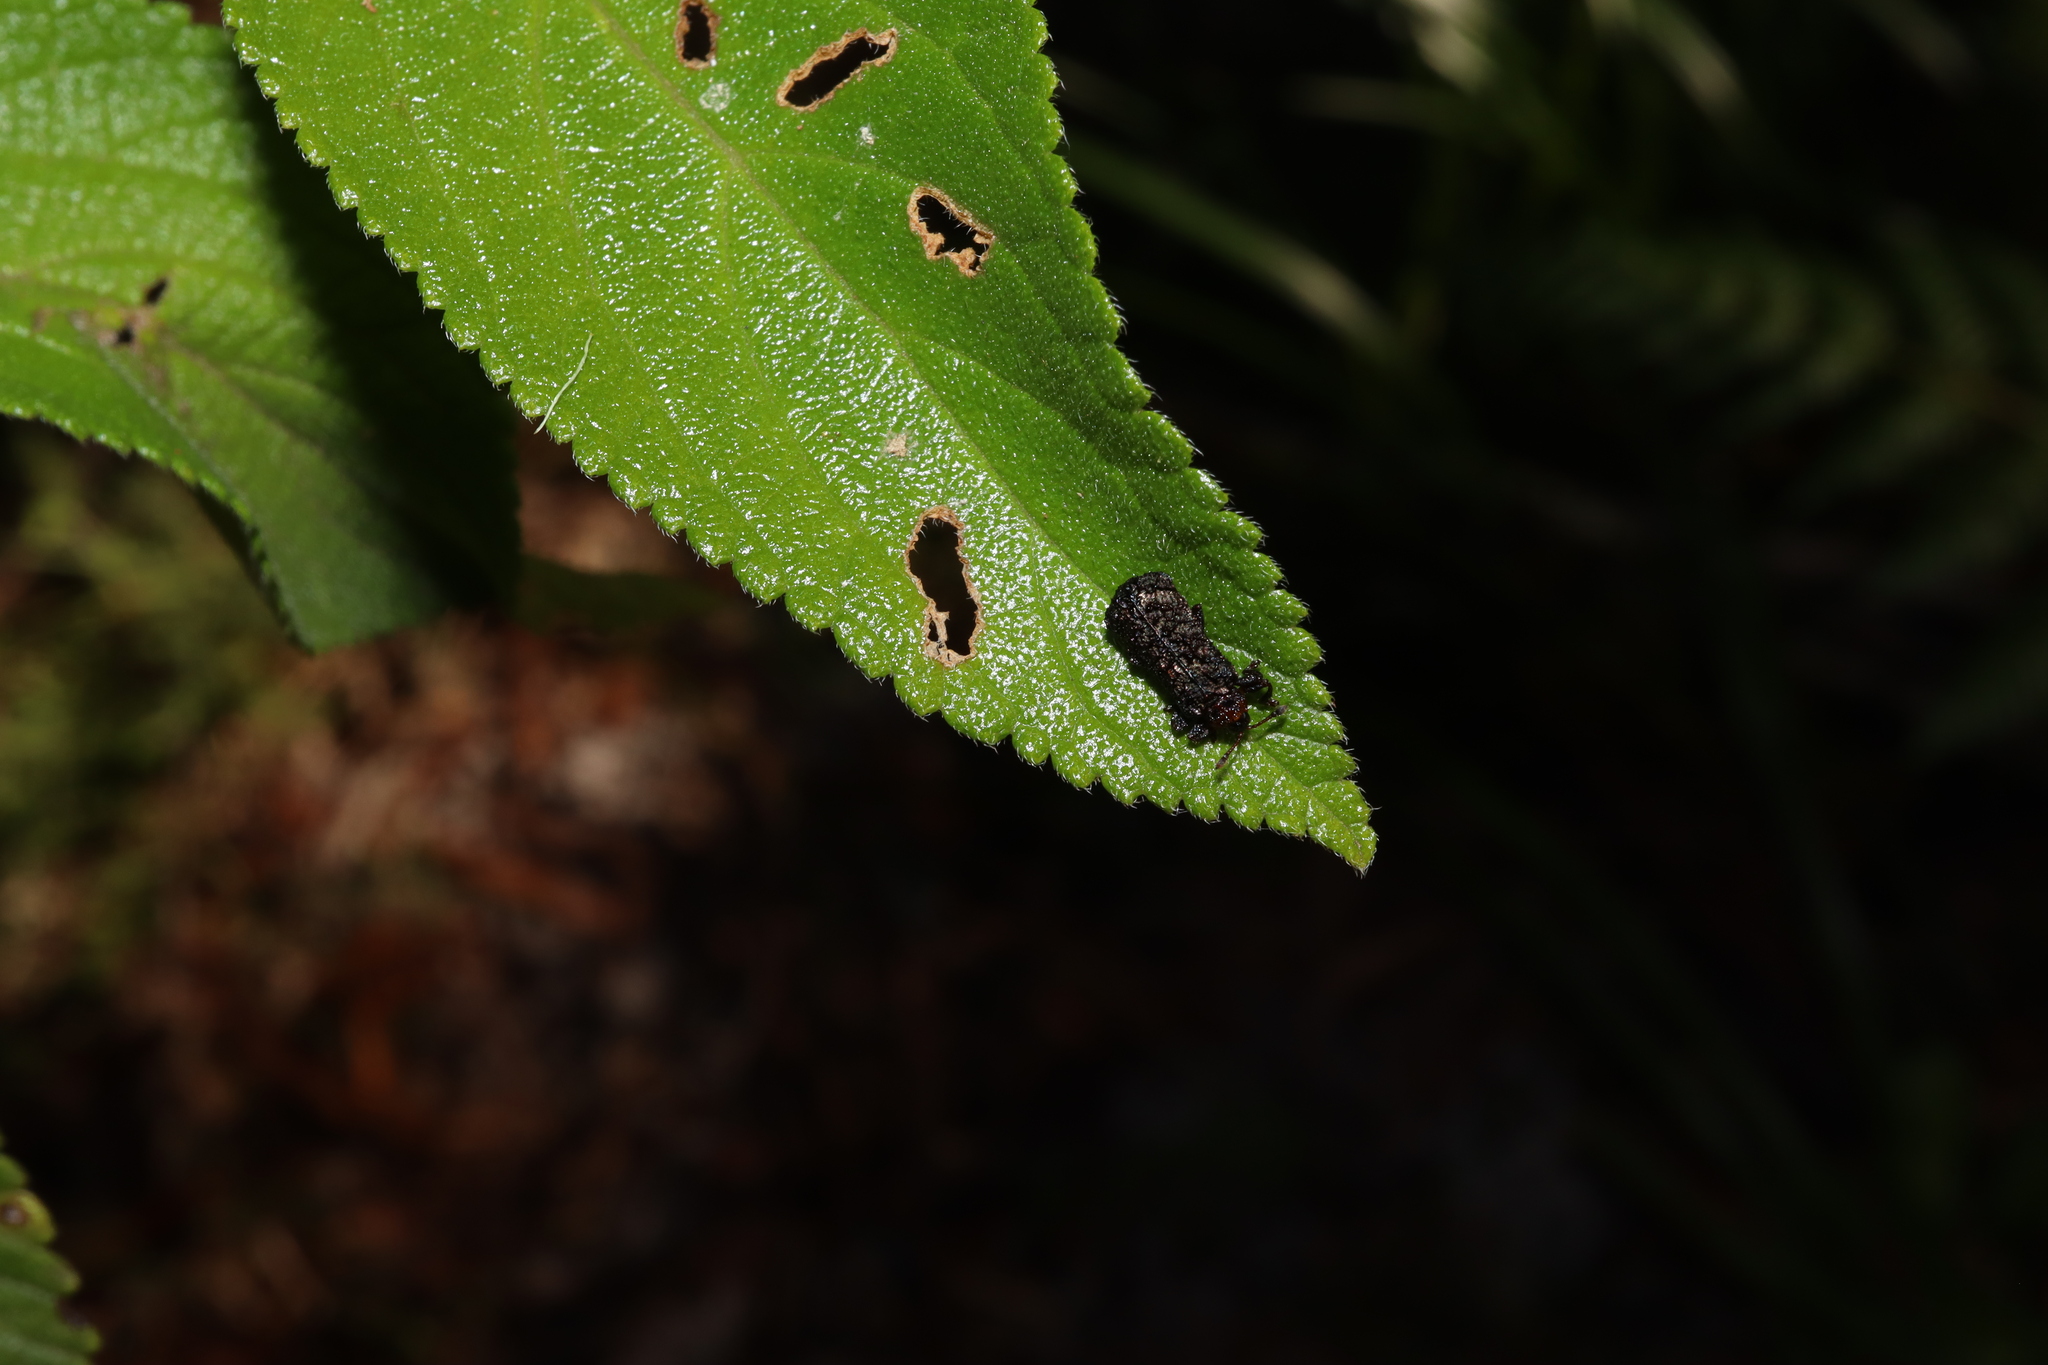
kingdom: Animalia
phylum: Arthropoda
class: Insecta
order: Coleoptera
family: Chrysomelidae
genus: Octotoma
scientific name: Octotoma scabripennis
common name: Beetle
